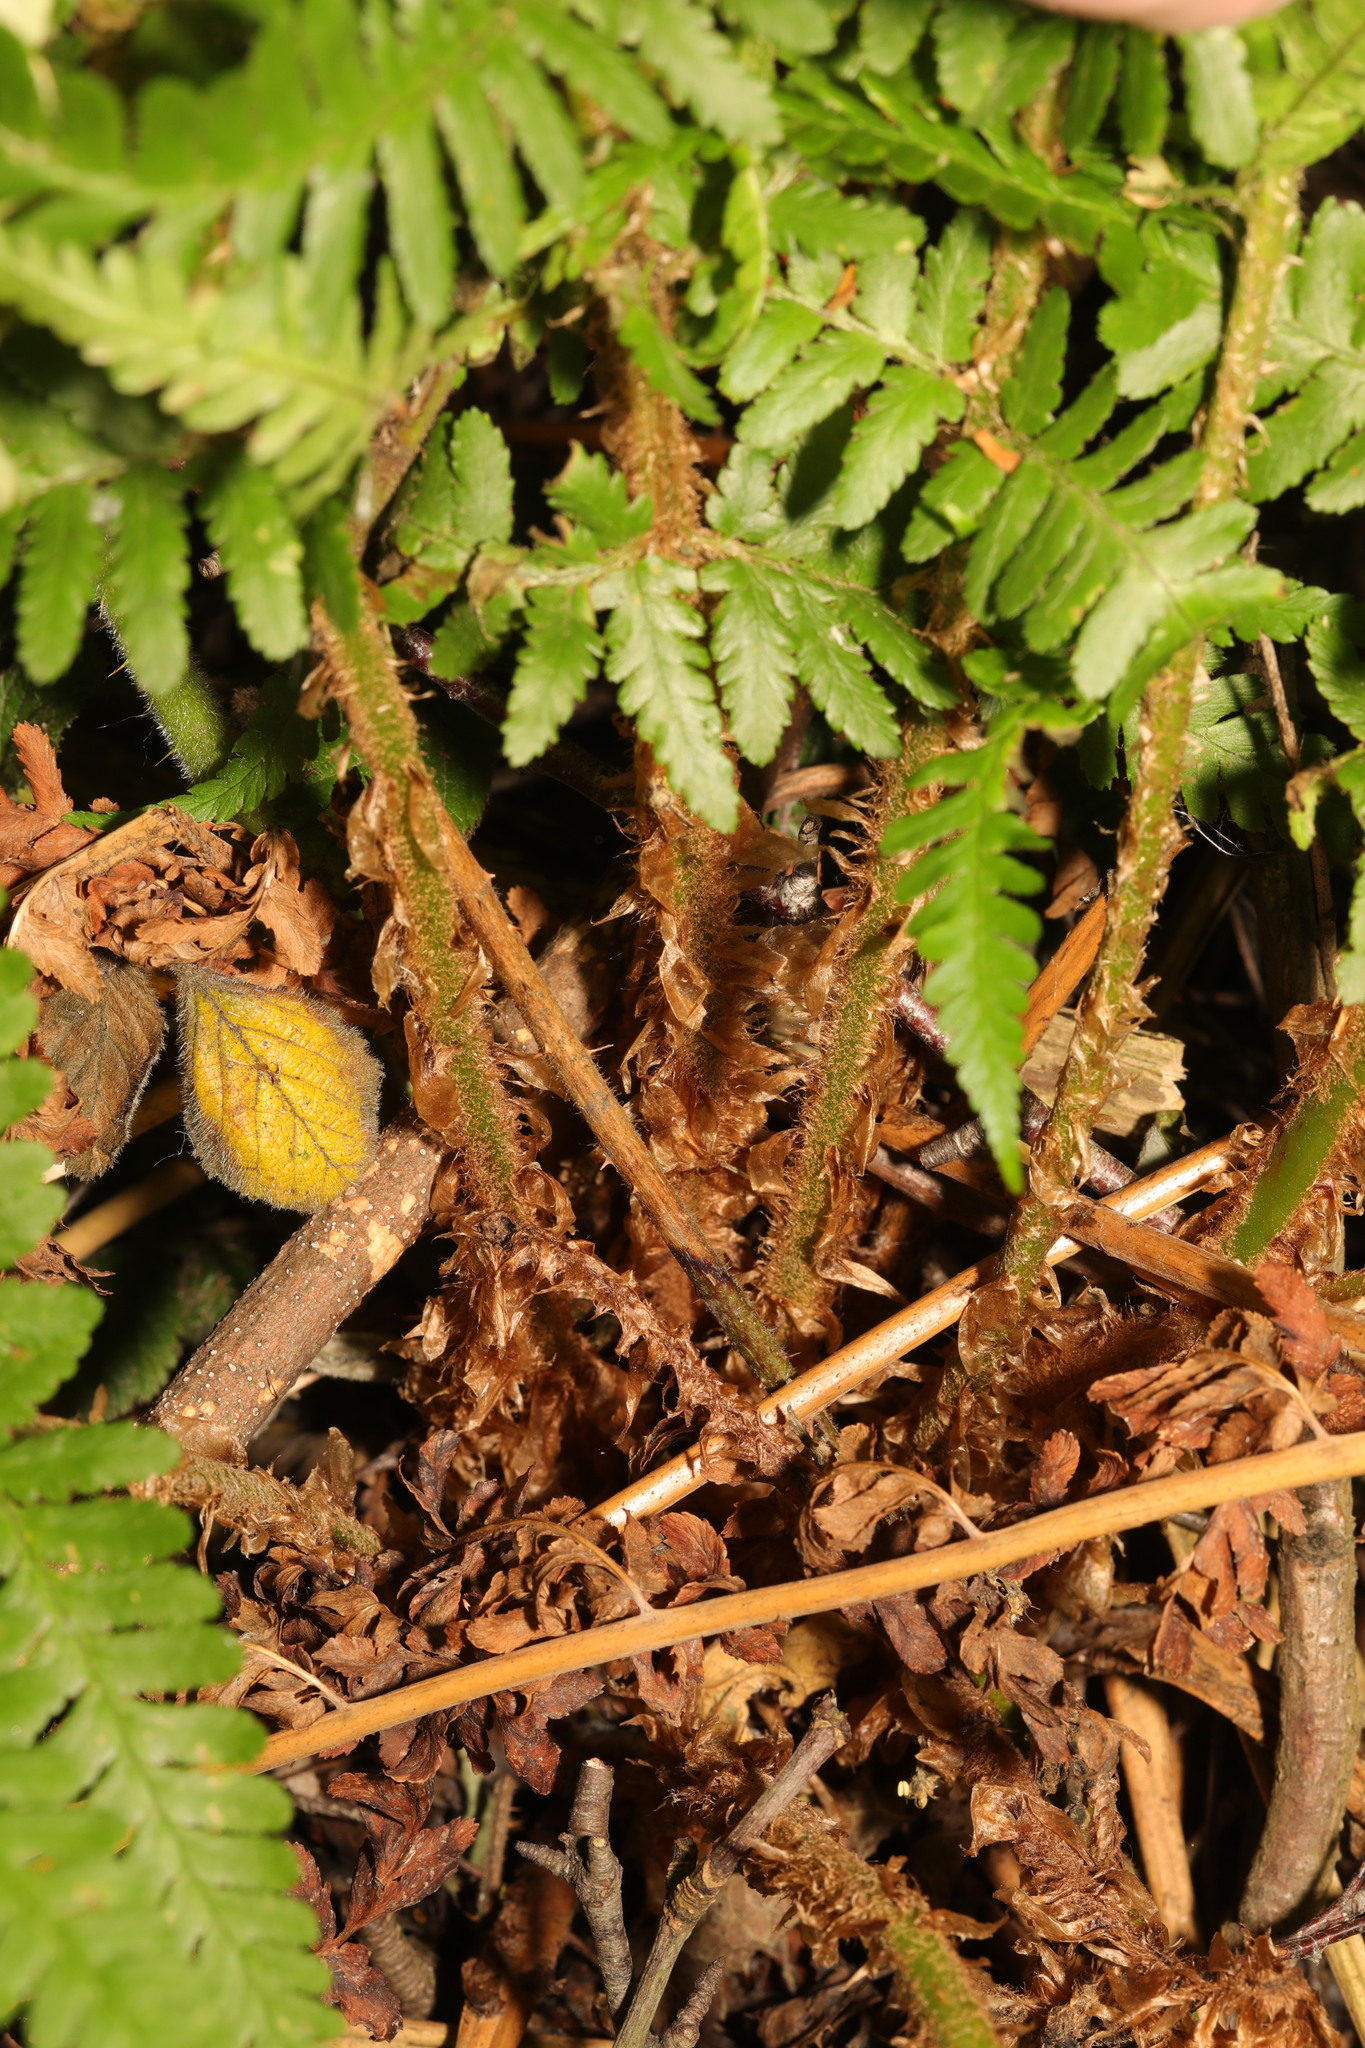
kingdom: Plantae
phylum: Tracheophyta
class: Polypodiopsida
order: Polypodiales
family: Dryopteridaceae
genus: Dryopteris
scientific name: Dryopteris filix-mas
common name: Male fern
